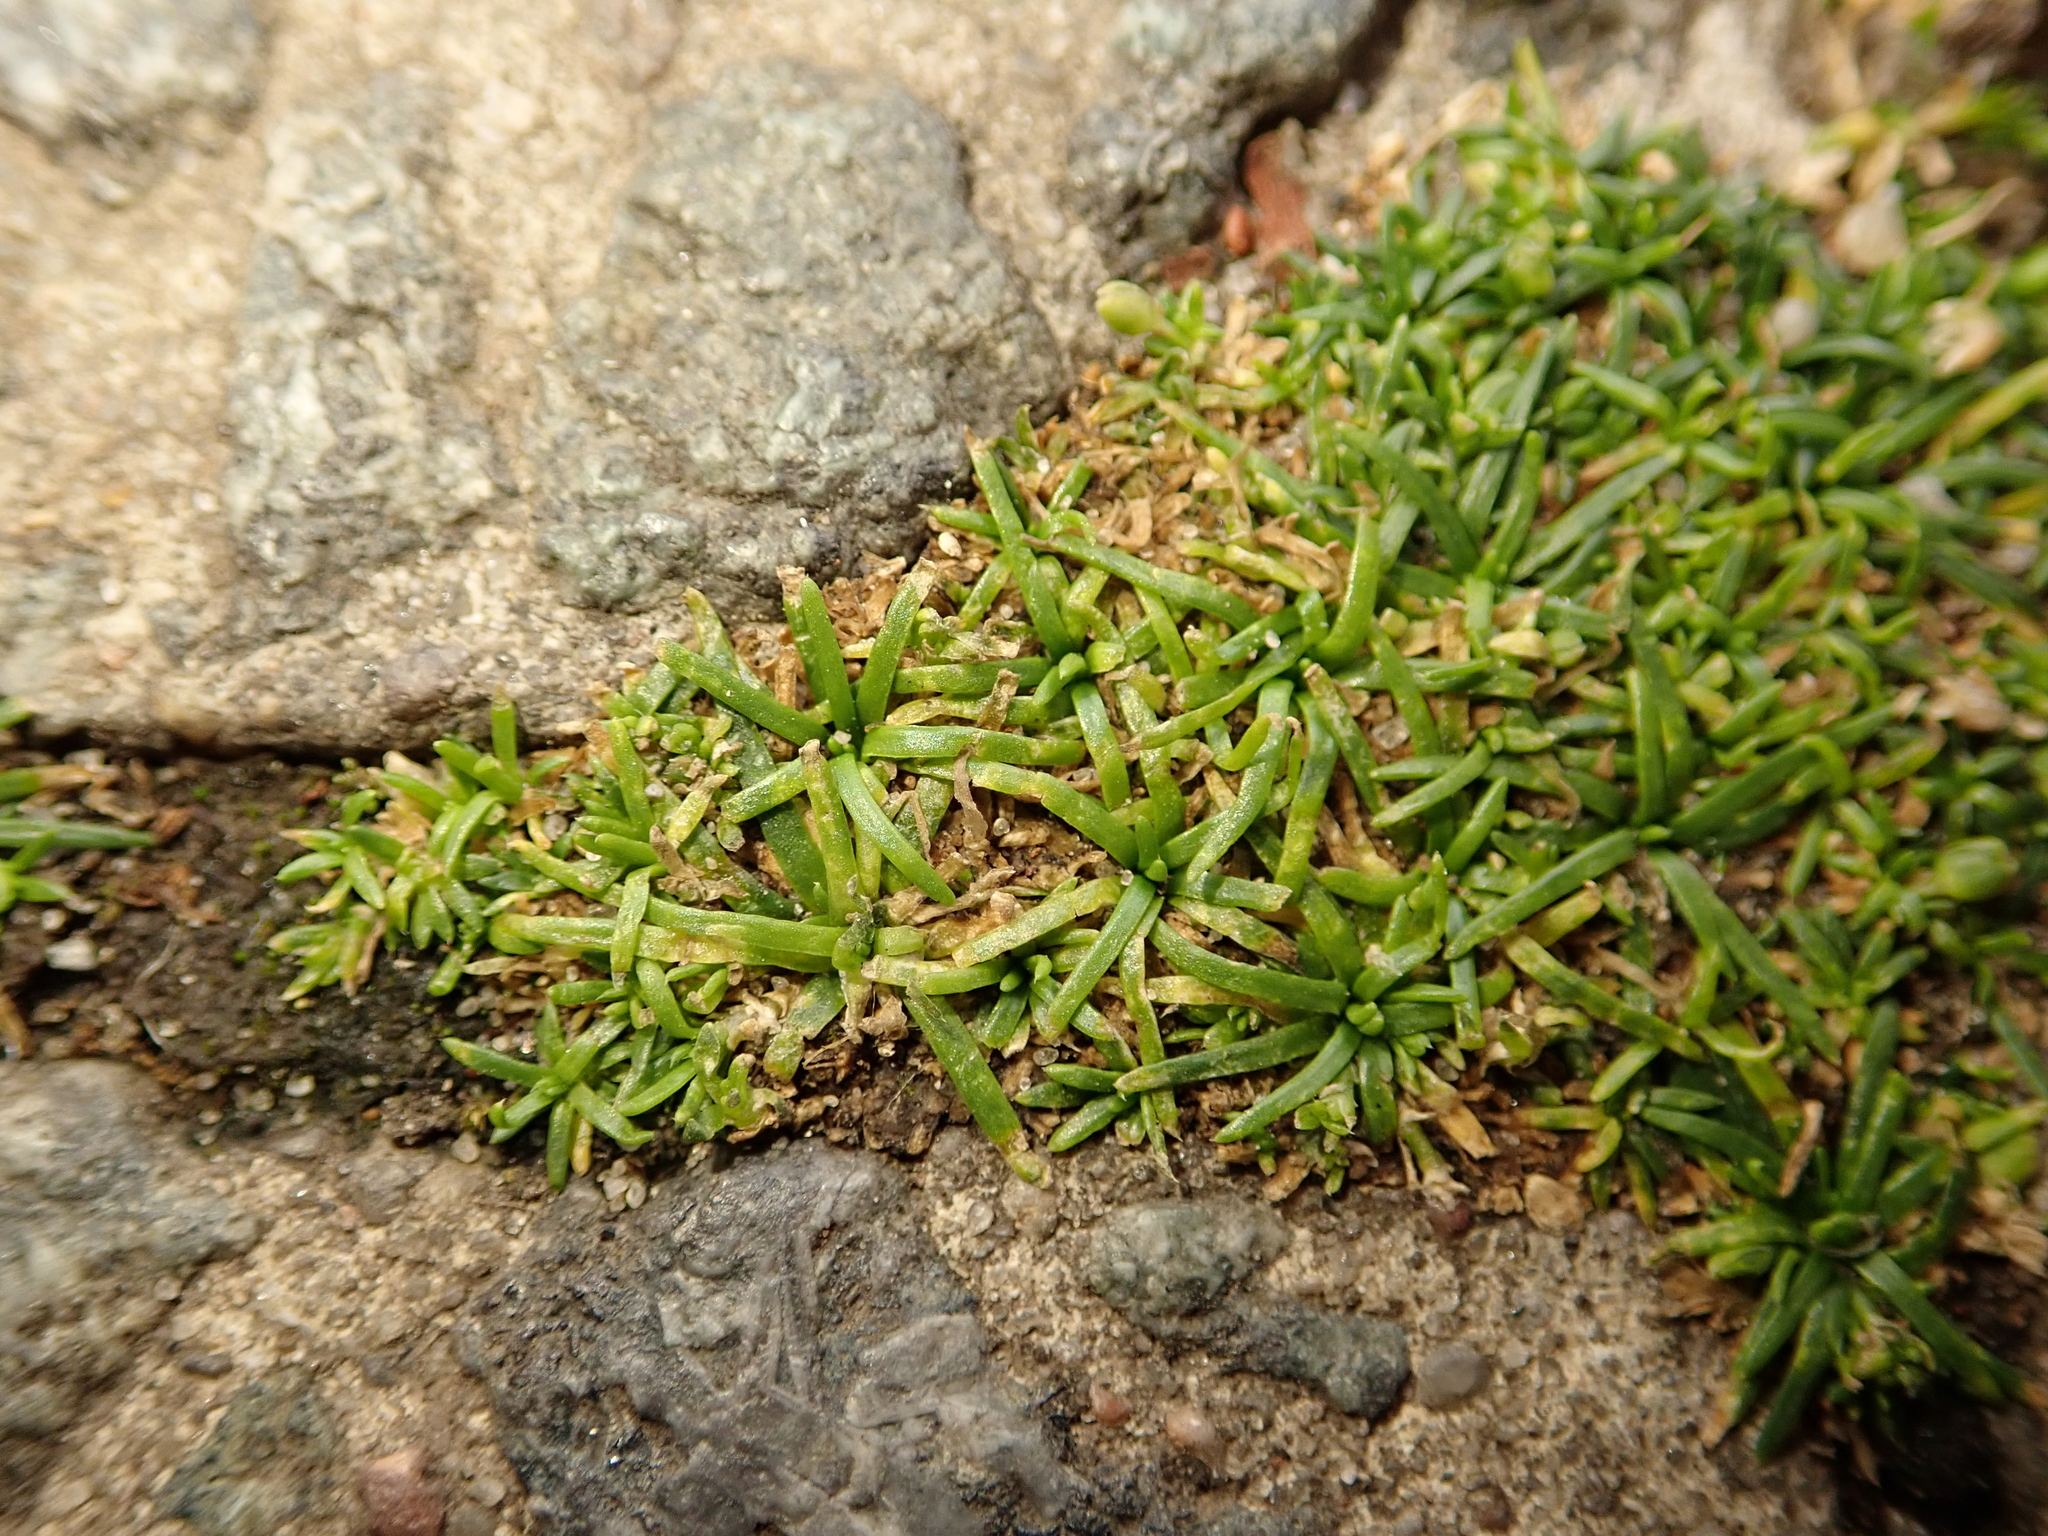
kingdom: Plantae
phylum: Tracheophyta
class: Magnoliopsida
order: Caryophyllales
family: Caryophyllaceae
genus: Sagina
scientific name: Sagina procumbens
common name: Procumbent pearlwort
